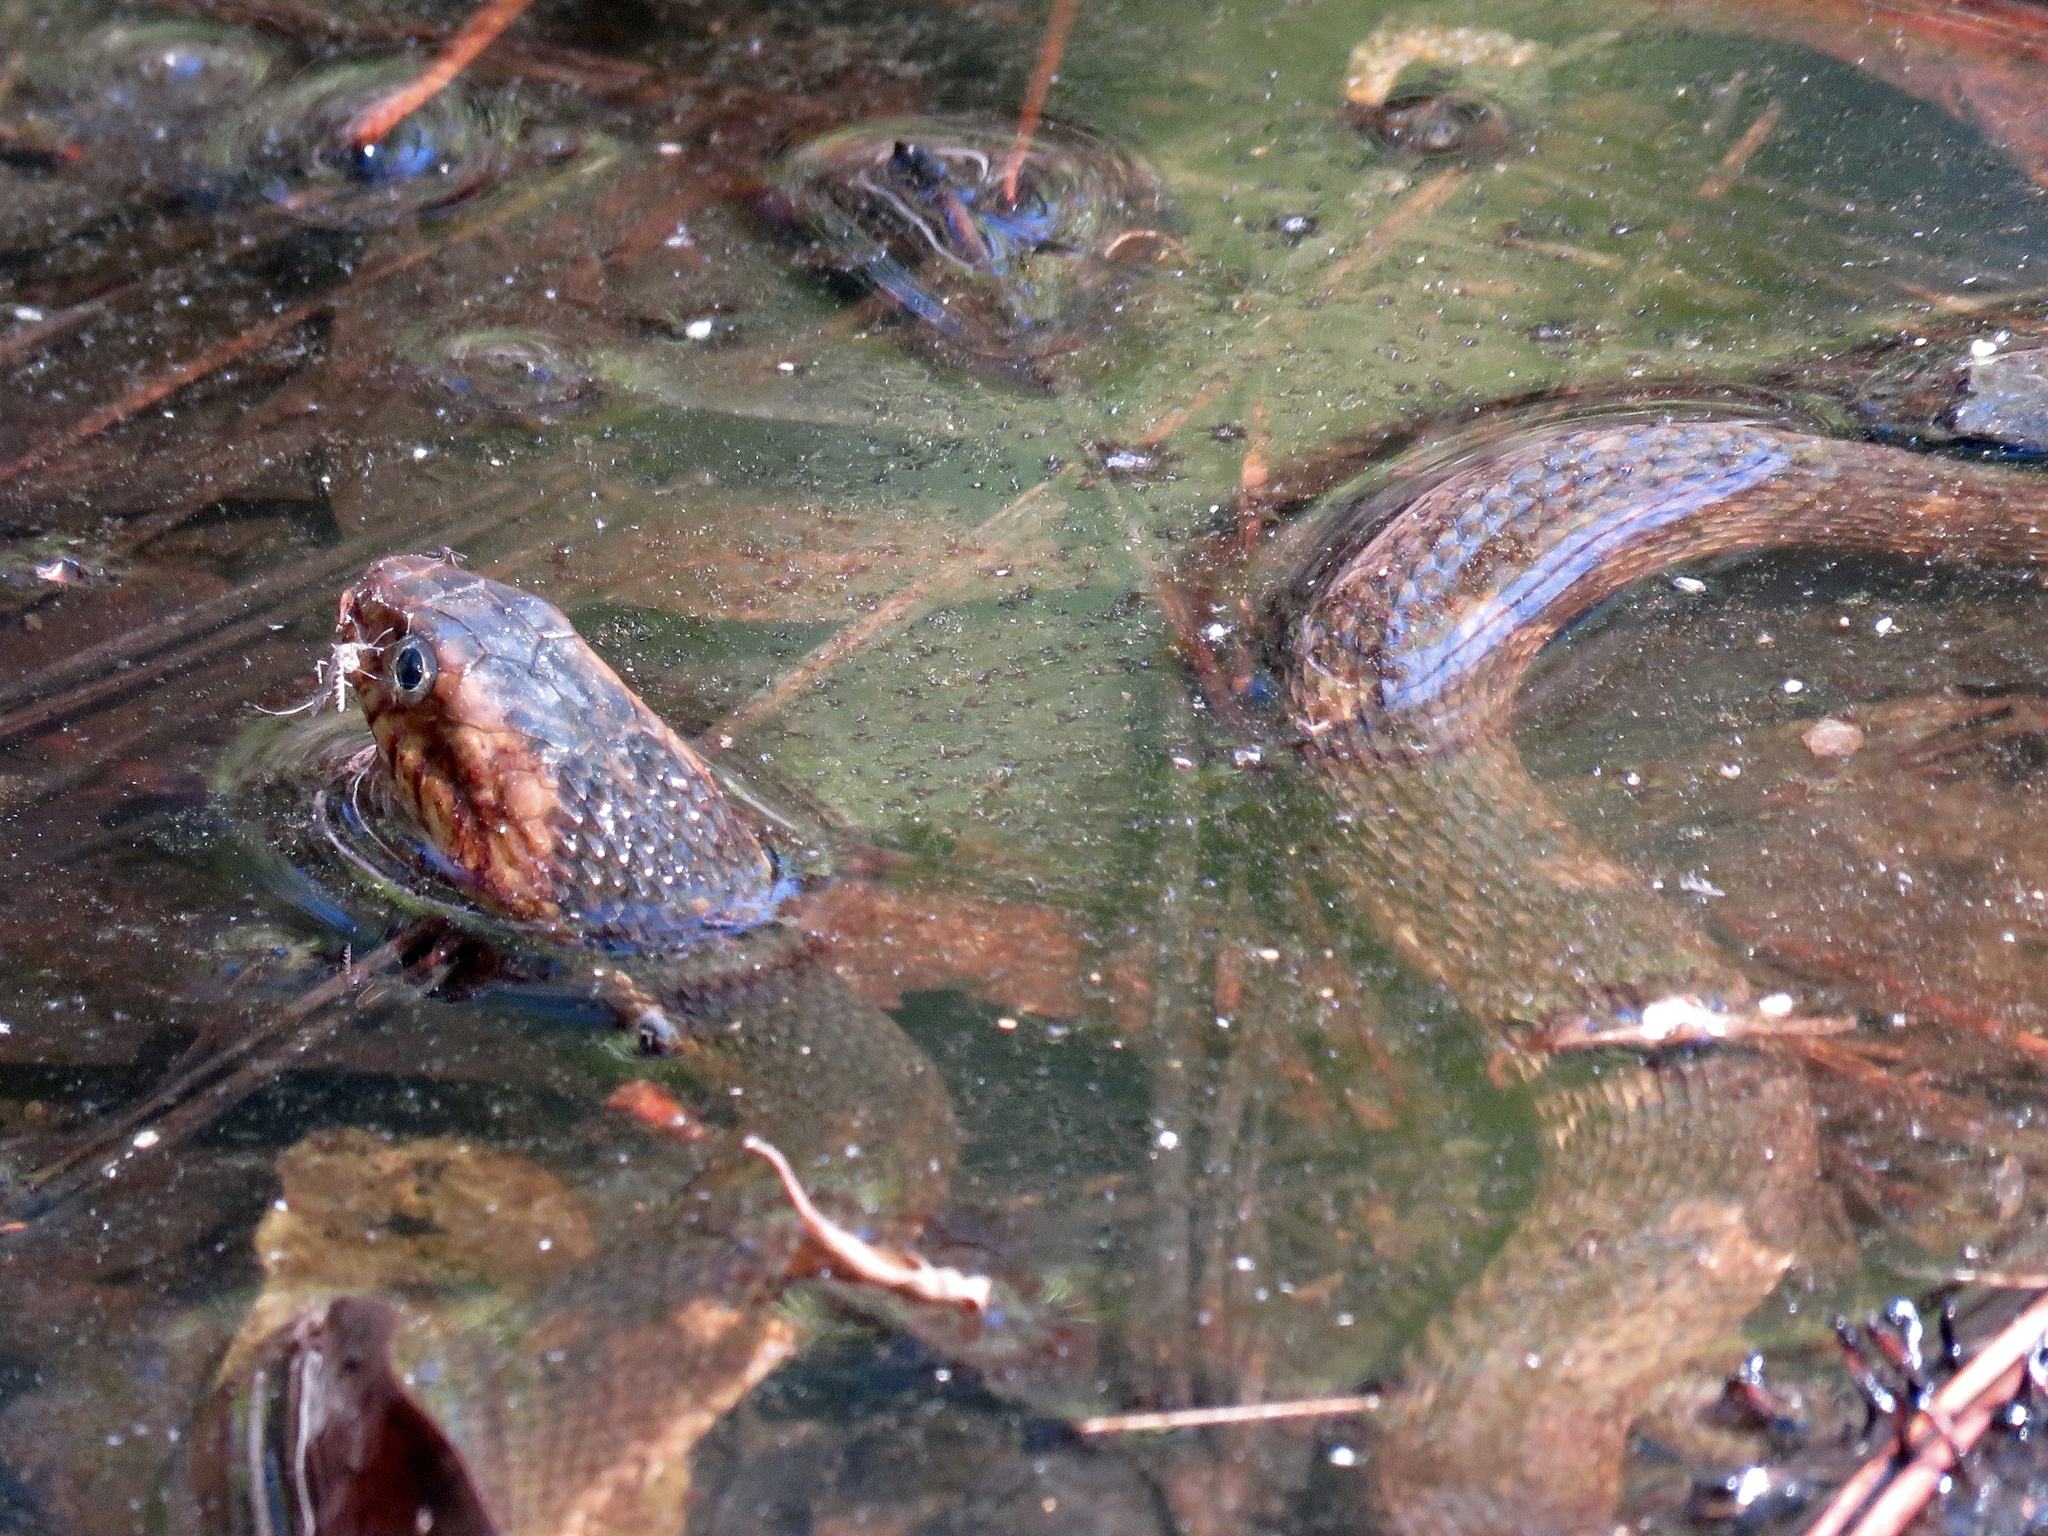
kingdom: Animalia
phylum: Chordata
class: Squamata
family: Colubridae
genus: Nerodia
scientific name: Nerodia fasciata
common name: Southern water snake
